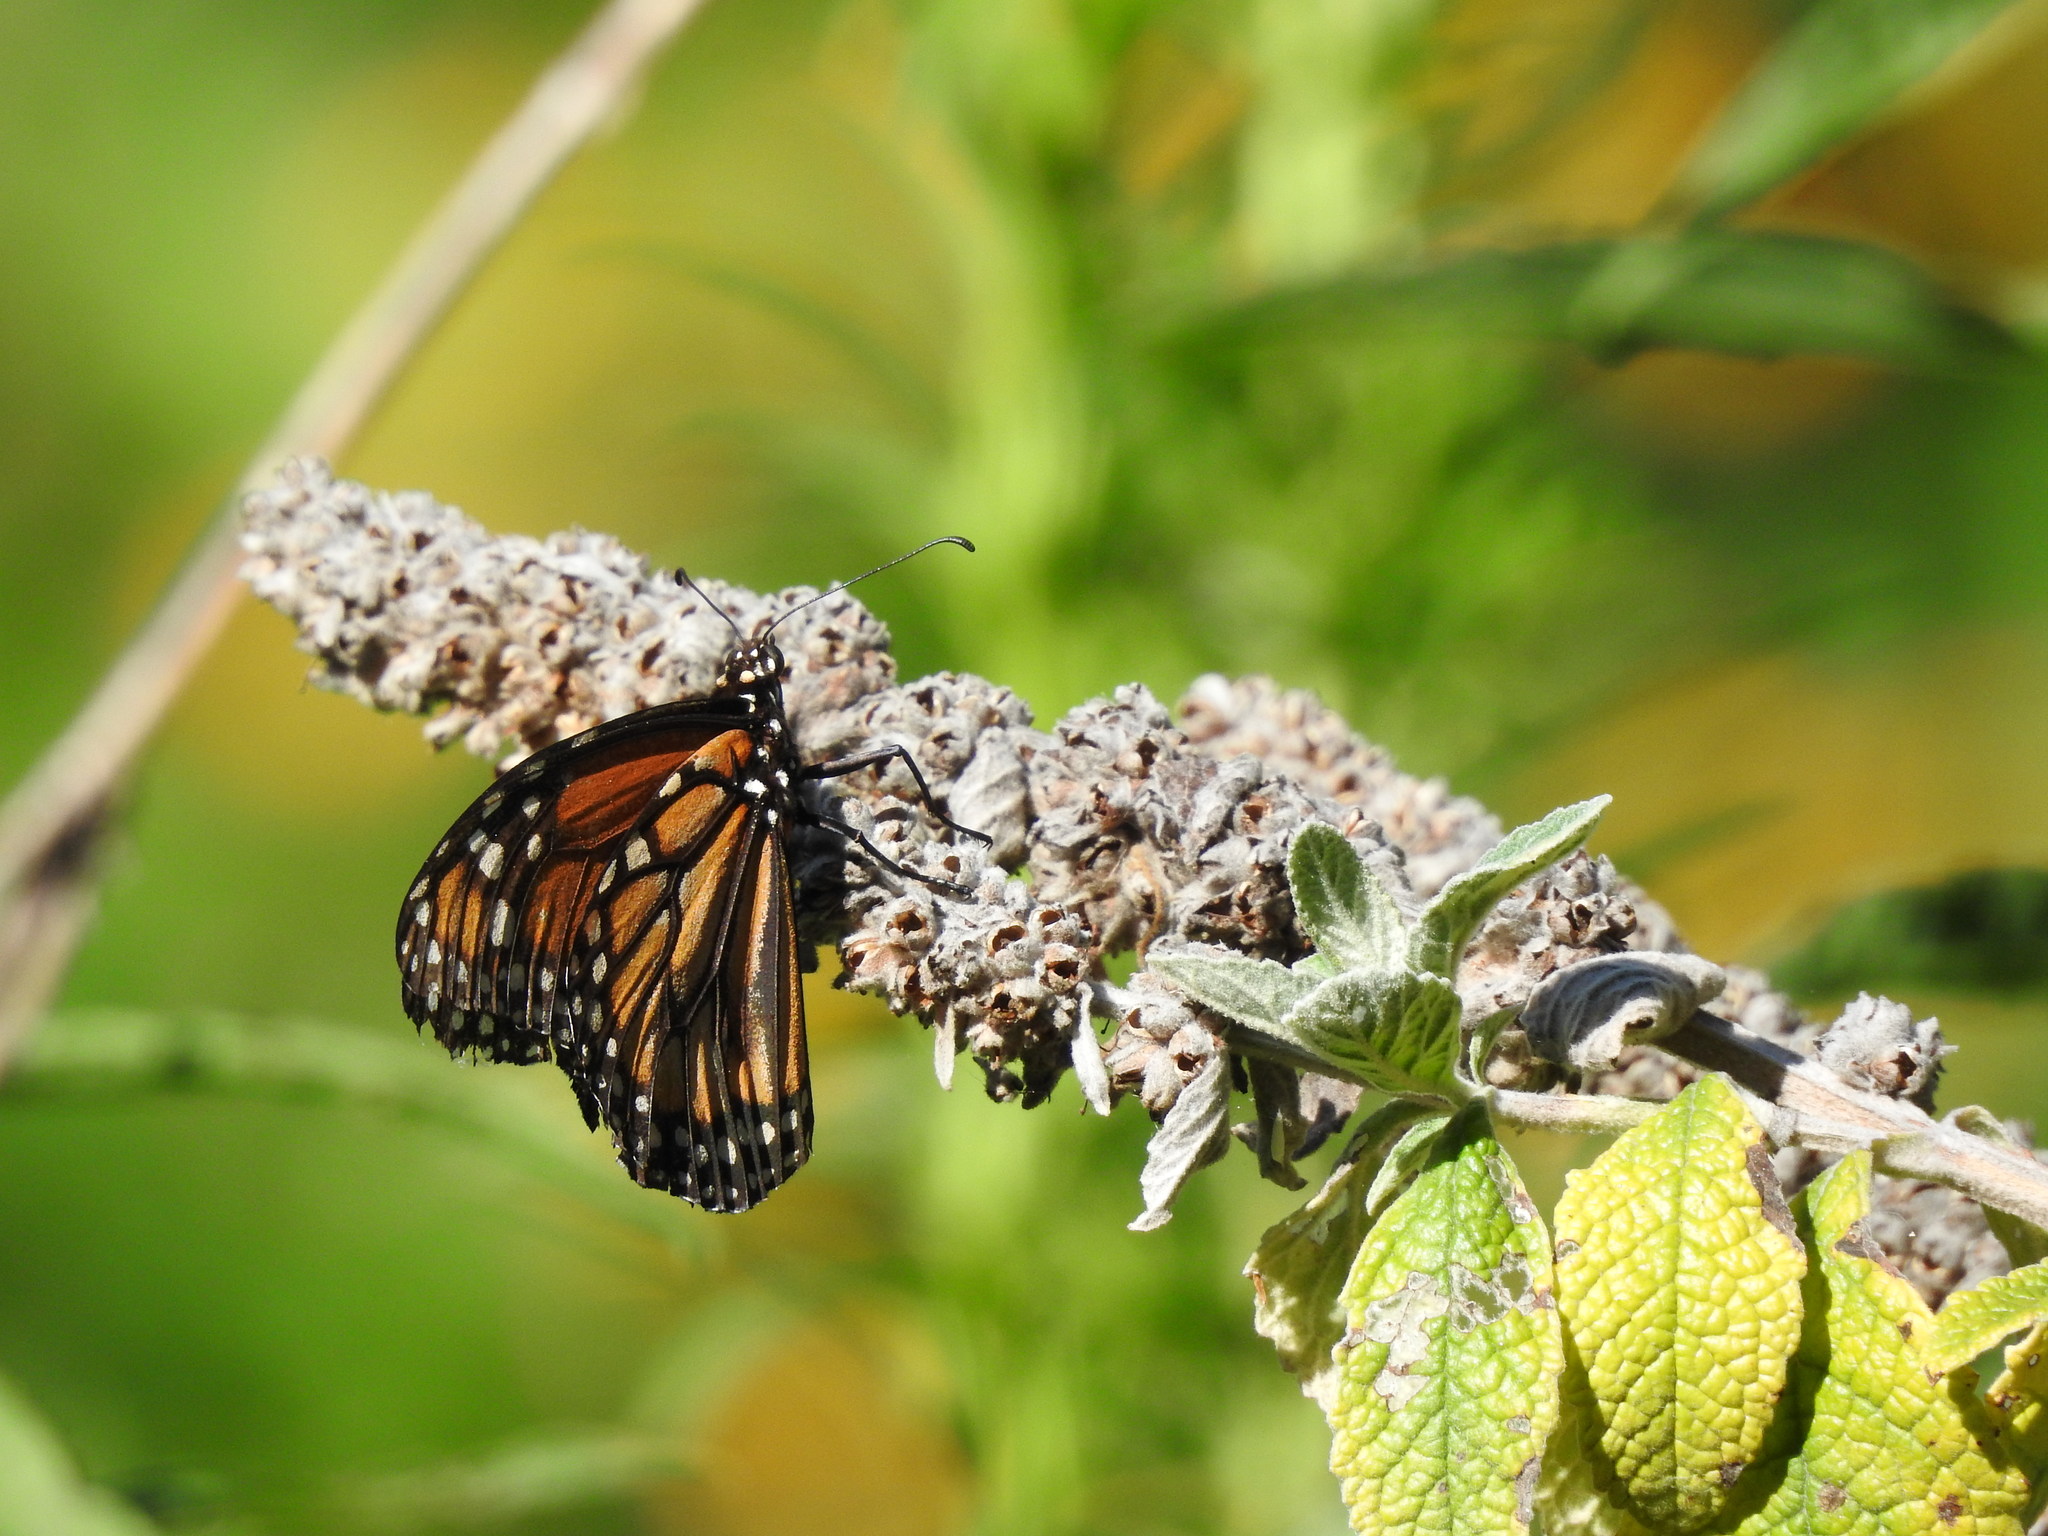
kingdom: Animalia
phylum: Arthropoda
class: Insecta
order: Lepidoptera
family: Nymphalidae
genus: Danaus
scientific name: Danaus erippus
